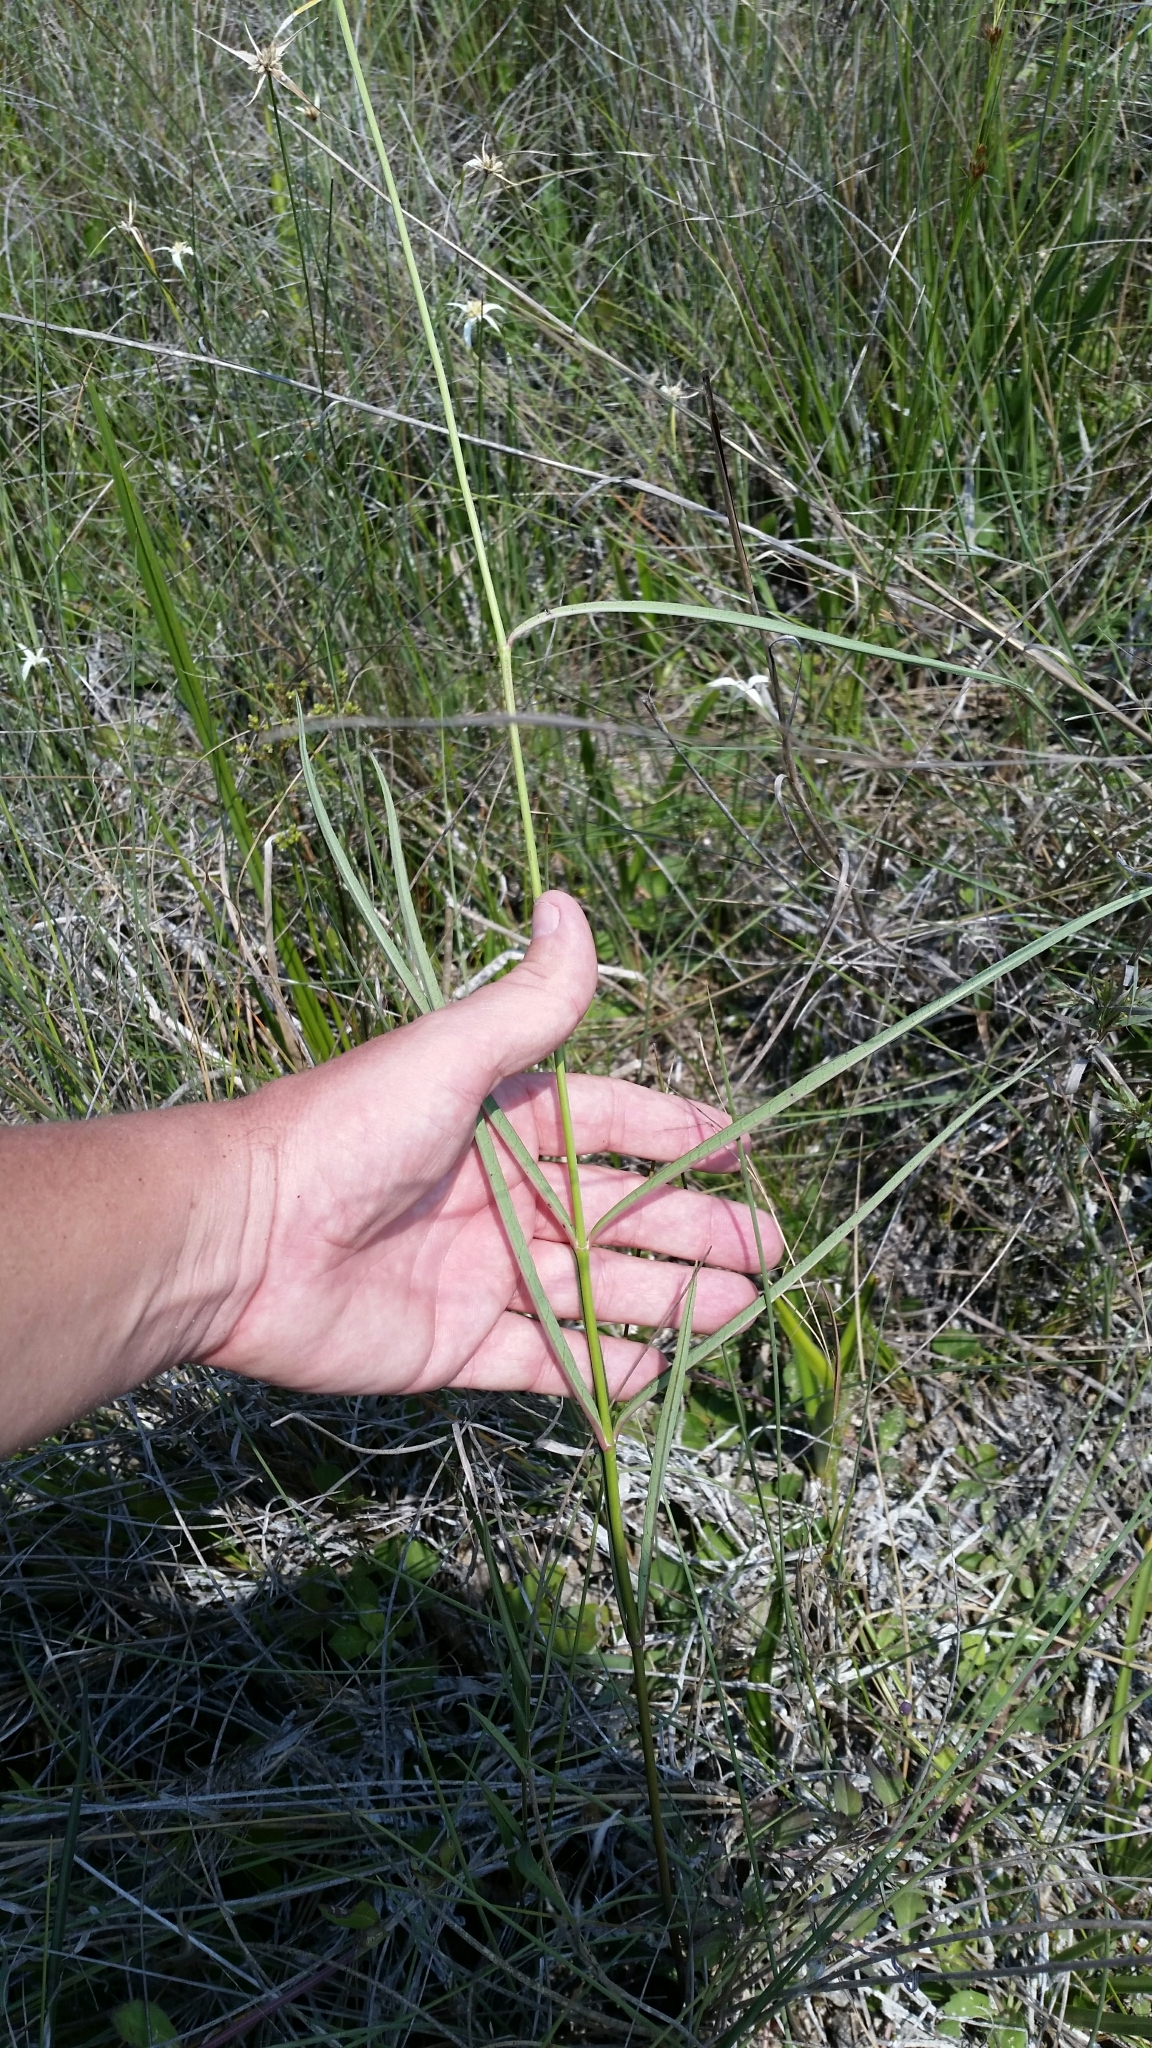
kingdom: Plantae
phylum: Tracheophyta
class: Magnoliopsida
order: Gentianales
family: Apocynaceae
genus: Asclepias
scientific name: Asclepias lanceolata
